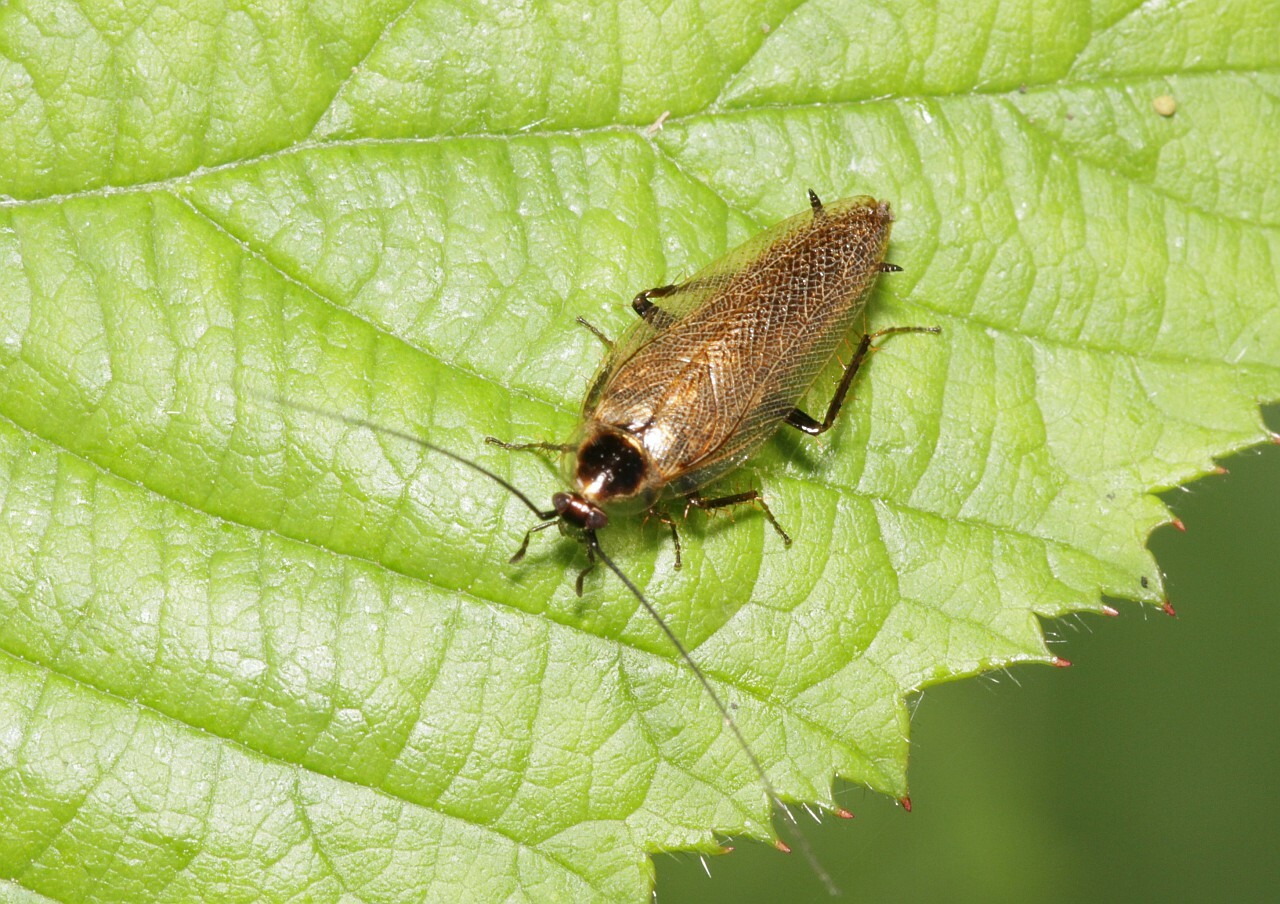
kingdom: Animalia
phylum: Arthropoda
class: Insecta
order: Blattodea
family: Ectobiidae
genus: Ectobius
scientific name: Ectobius lapponicus
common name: Dusky cockroach
